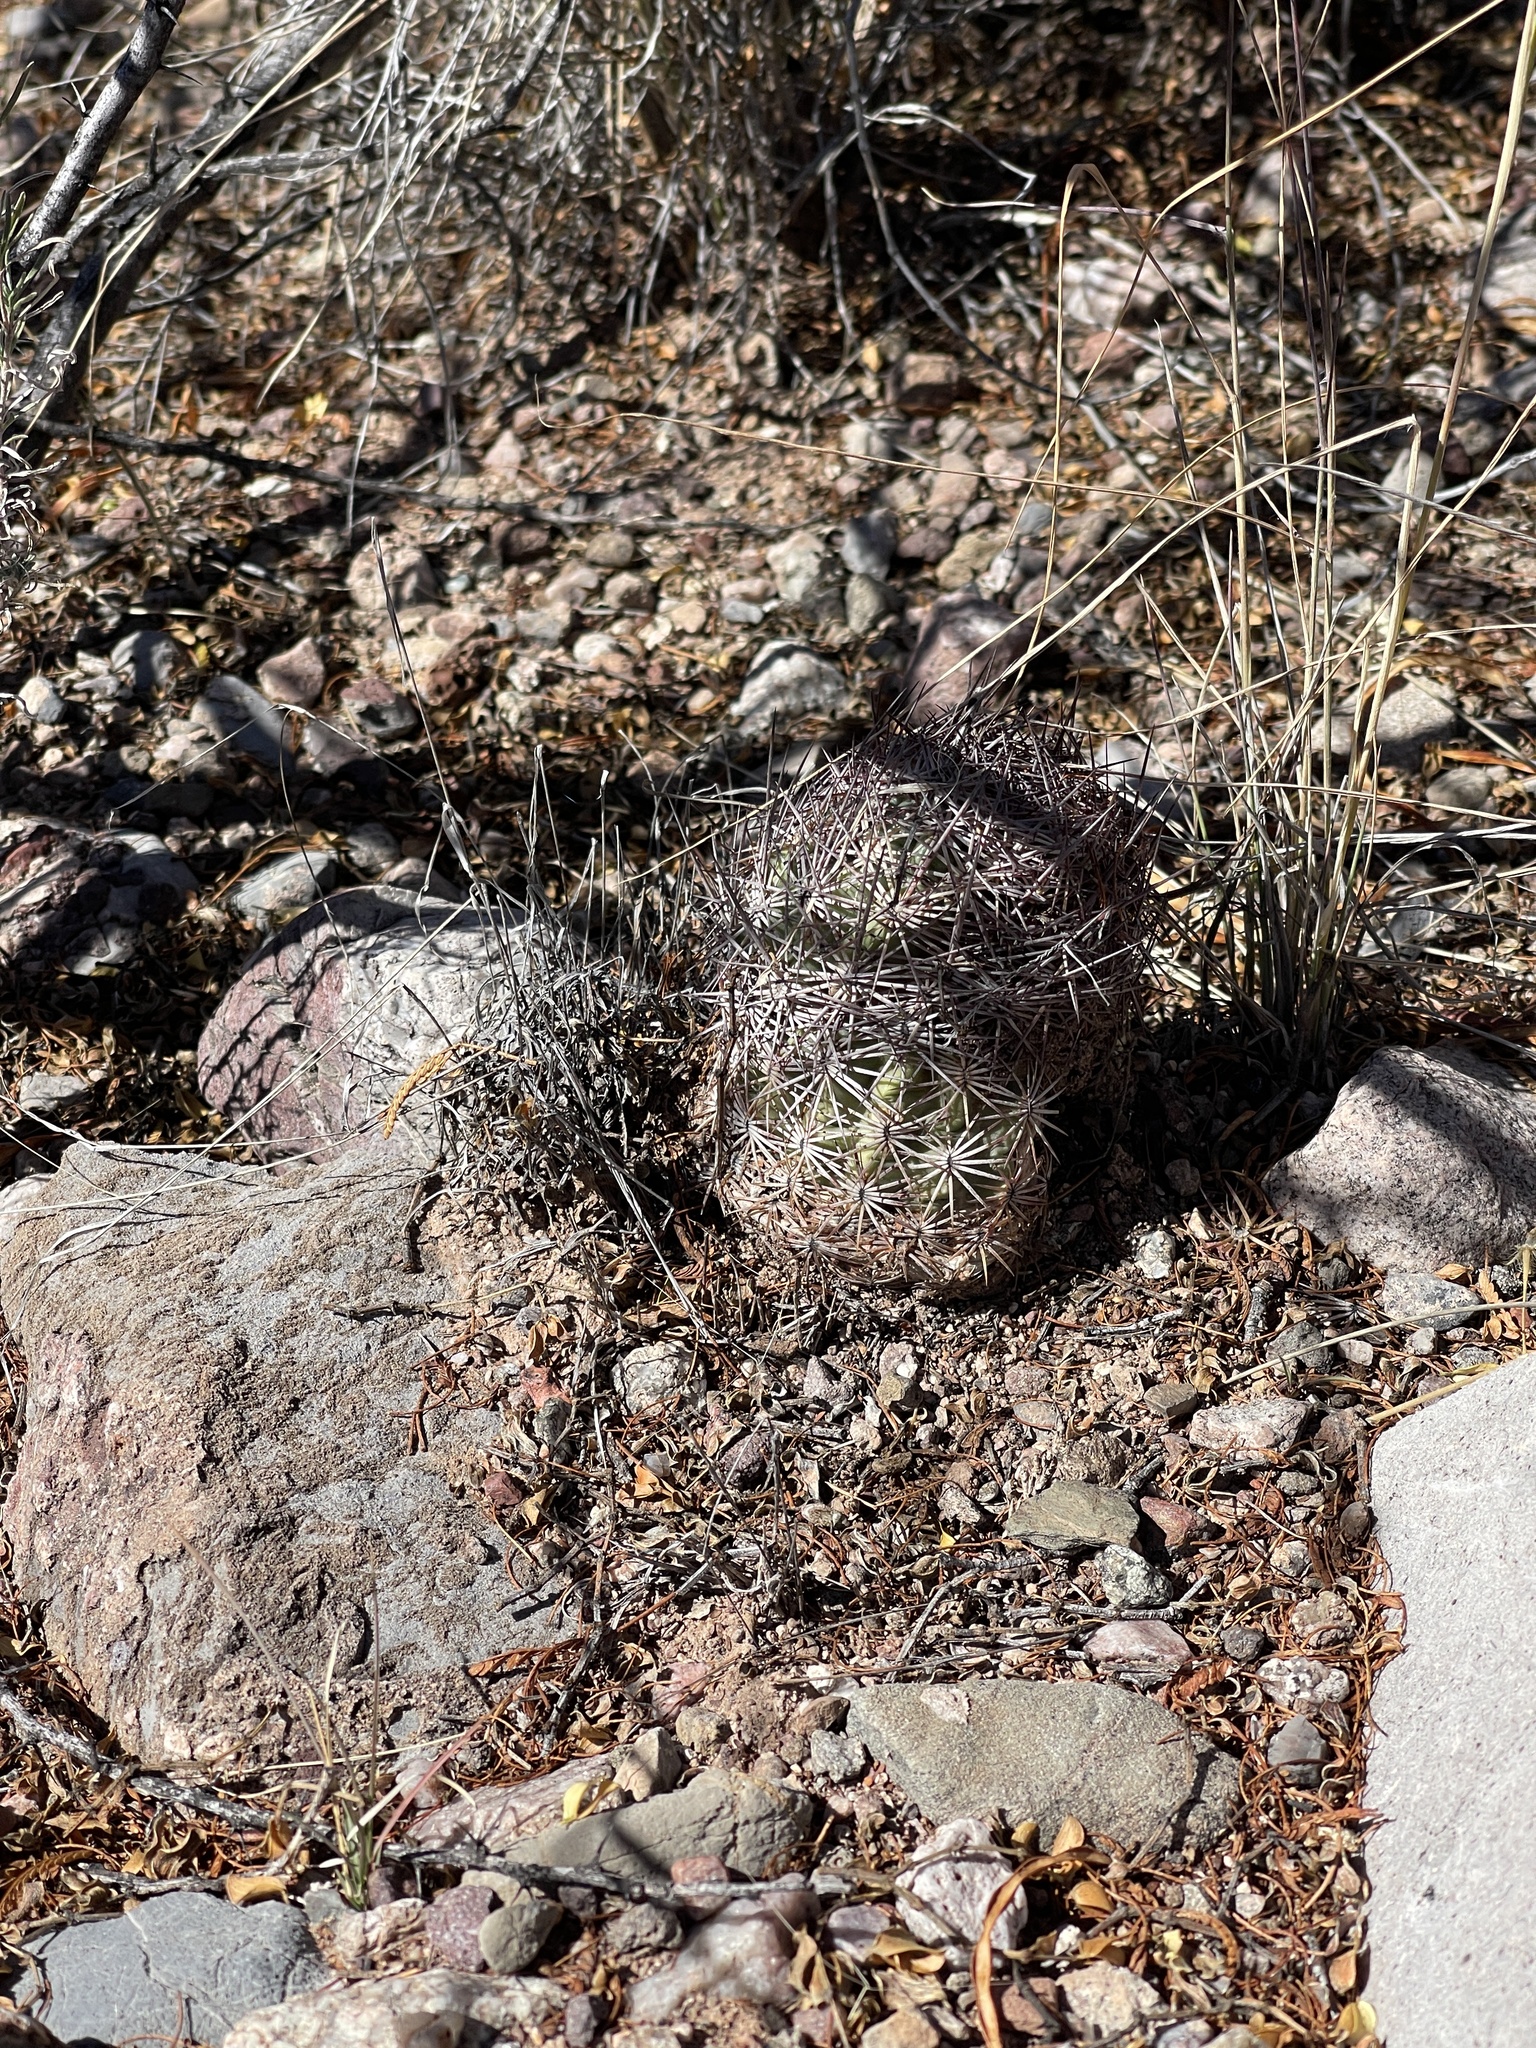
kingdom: Plantae
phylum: Tracheophyta
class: Magnoliopsida
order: Caryophyllales
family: Cactaceae
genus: Sclerocactus
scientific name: Sclerocactus johnsonii
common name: Eight-spine fishhook cactus
